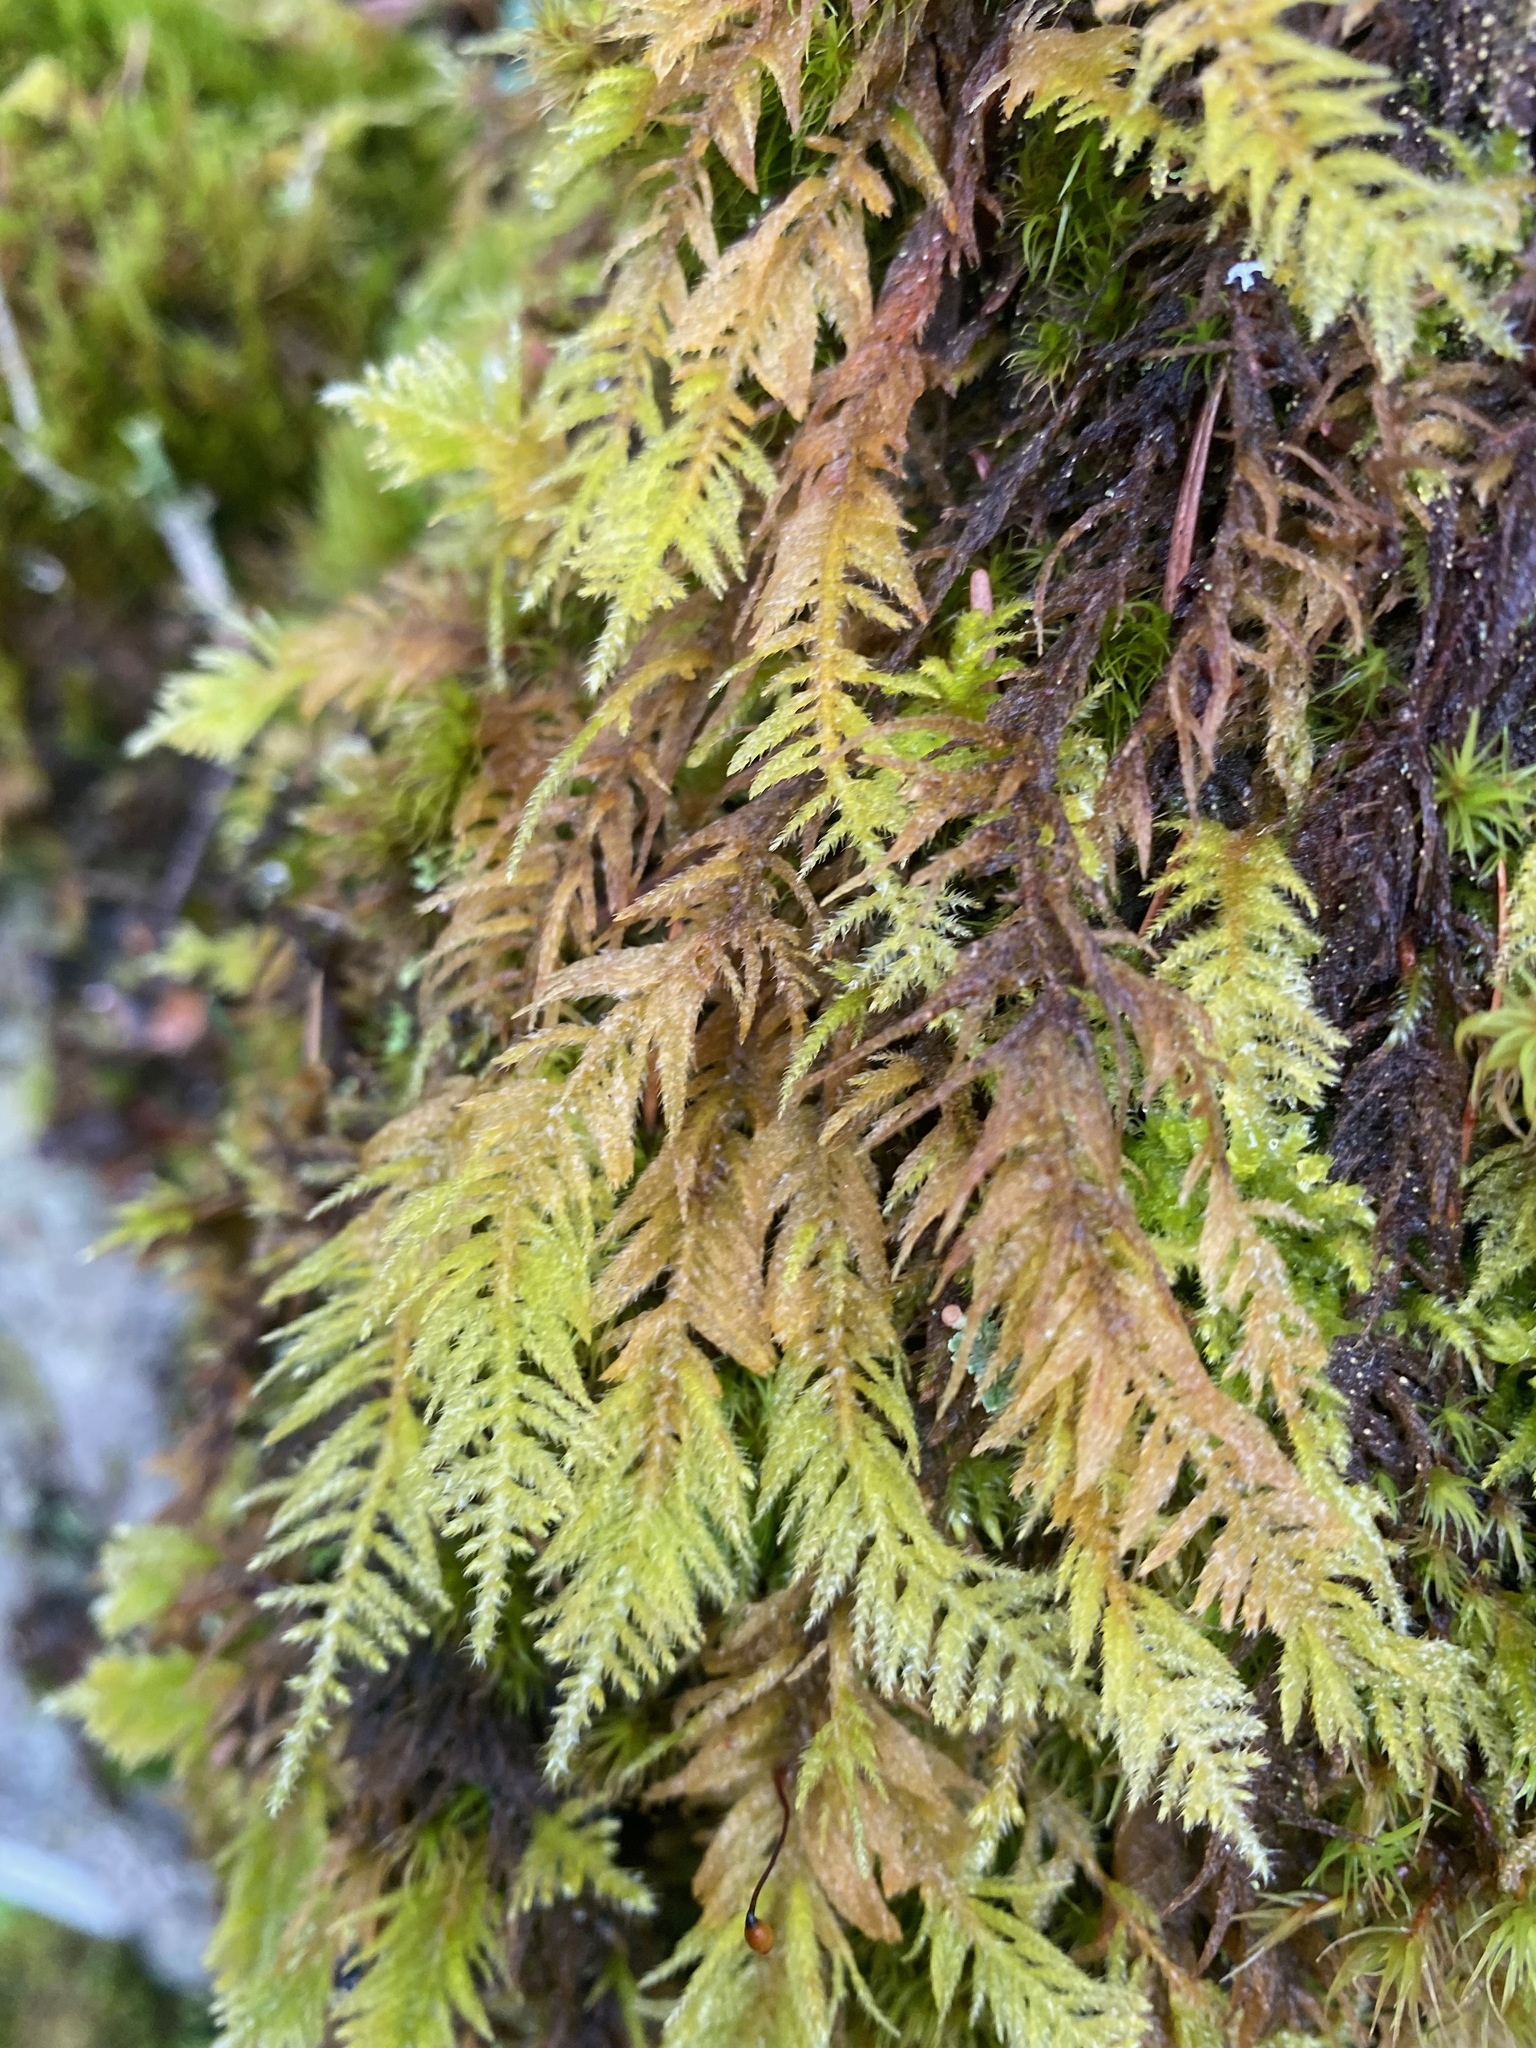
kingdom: Plantae
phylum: Bryophyta
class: Bryopsida
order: Hypnales
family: Brachytheciaceae
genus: Kindbergia
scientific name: Kindbergia oregana
